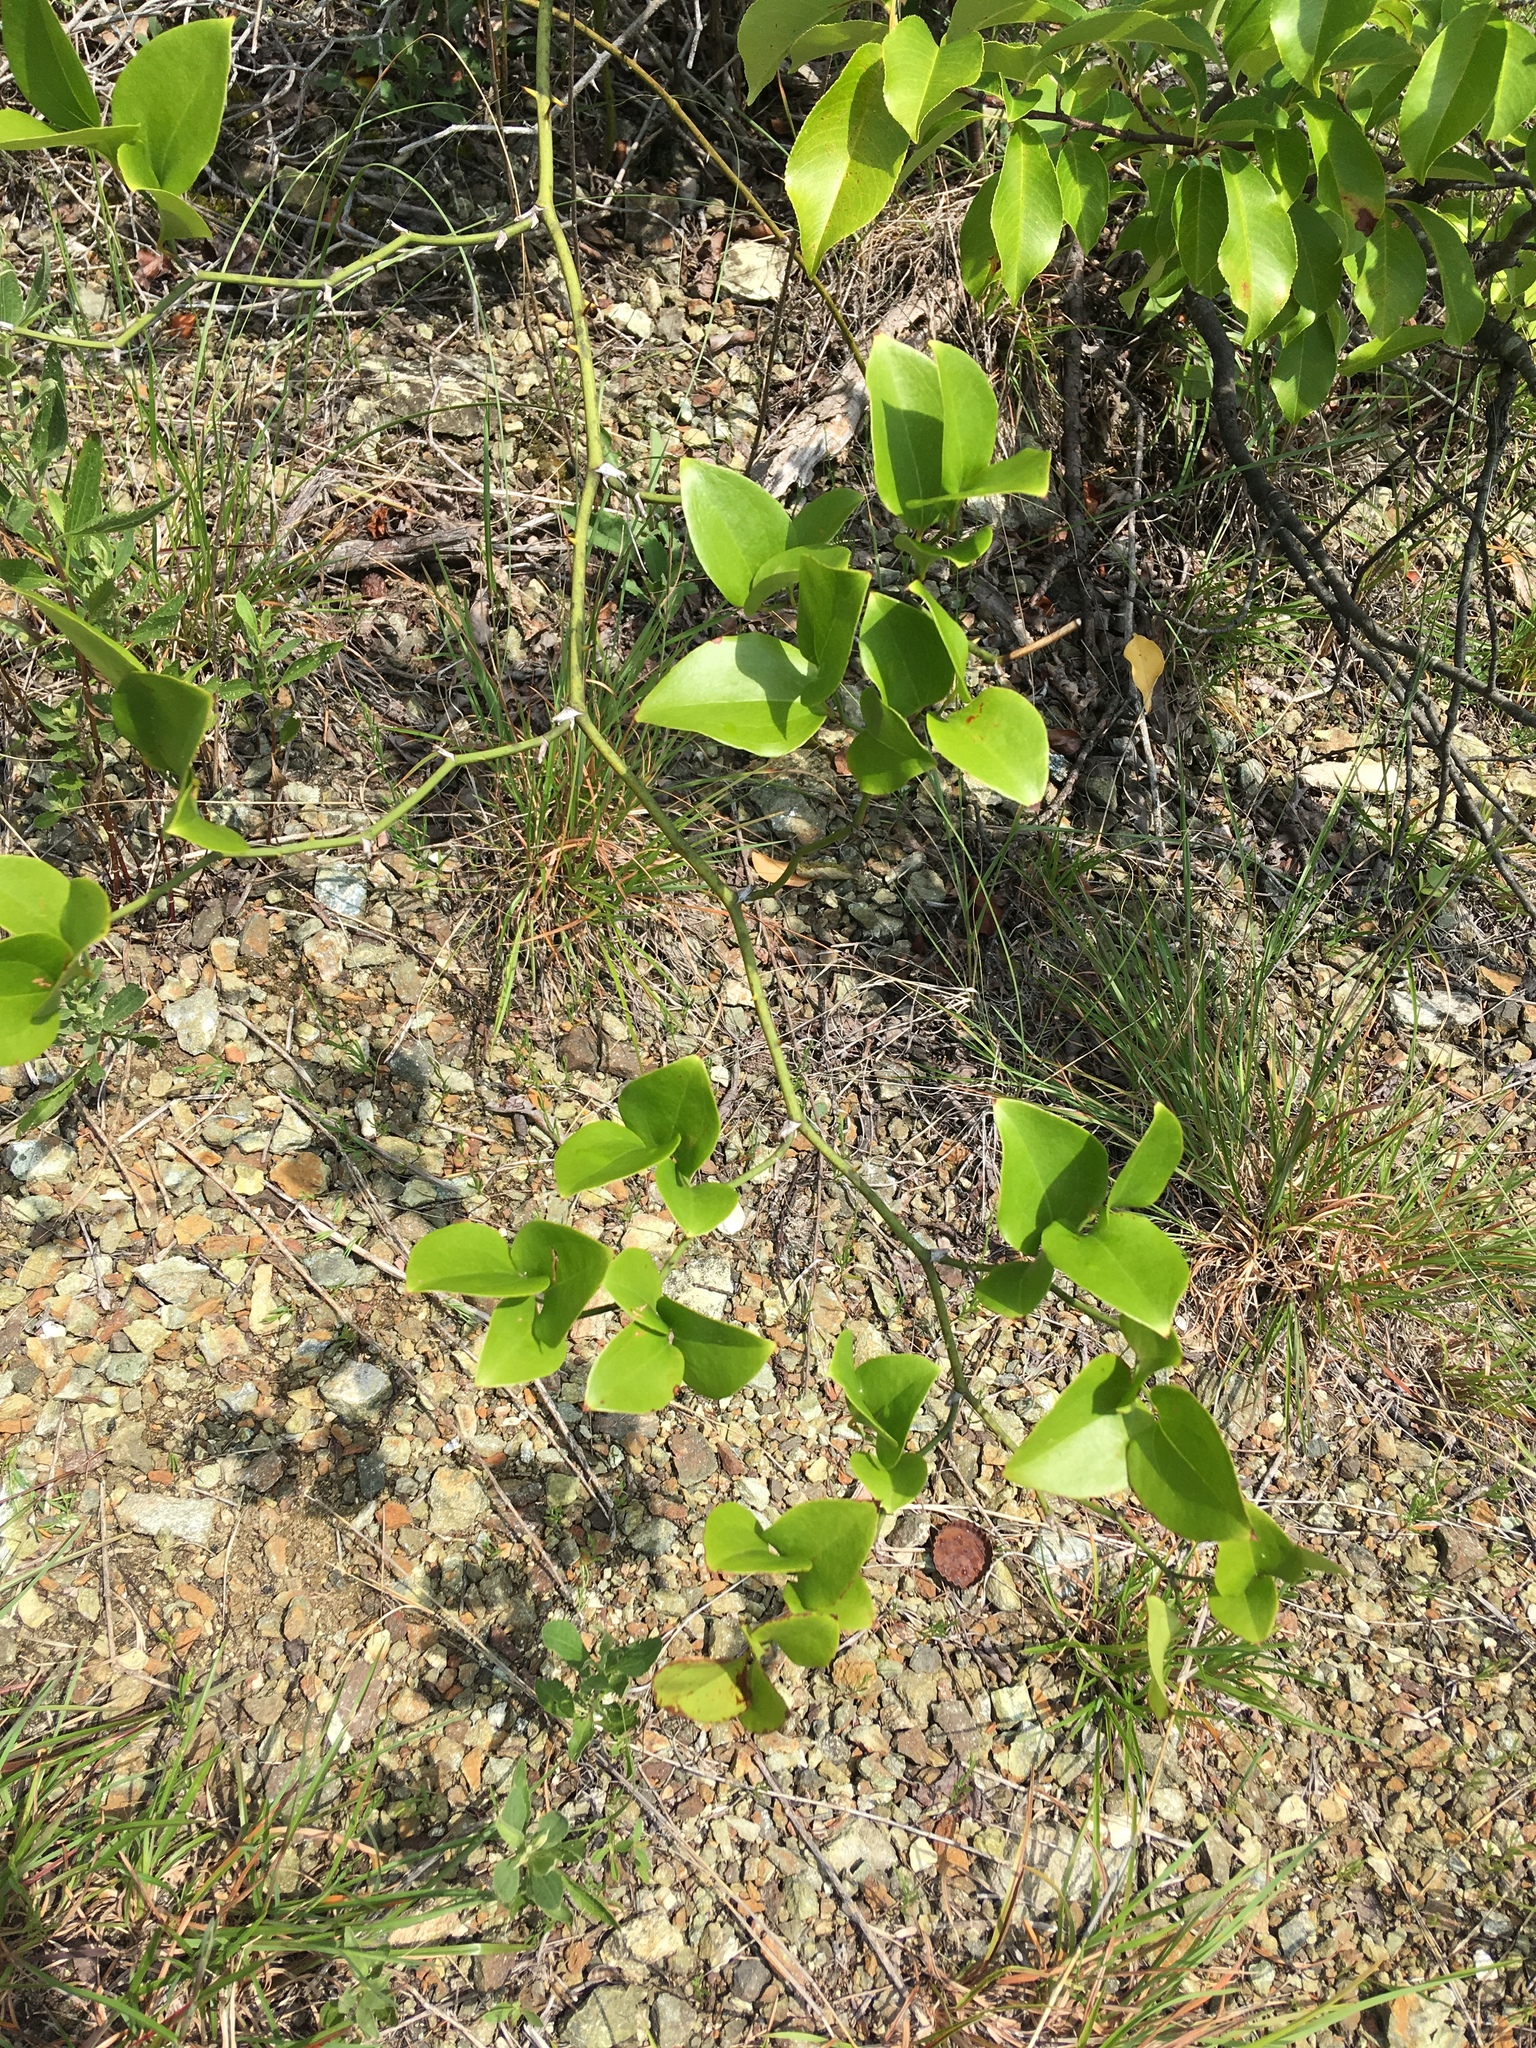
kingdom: Plantae
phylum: Tracheophyta
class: Liliopsida
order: Liliales
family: Smilacaceae
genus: Smilax
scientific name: Smilax rotundifolia
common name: Bullbriar
